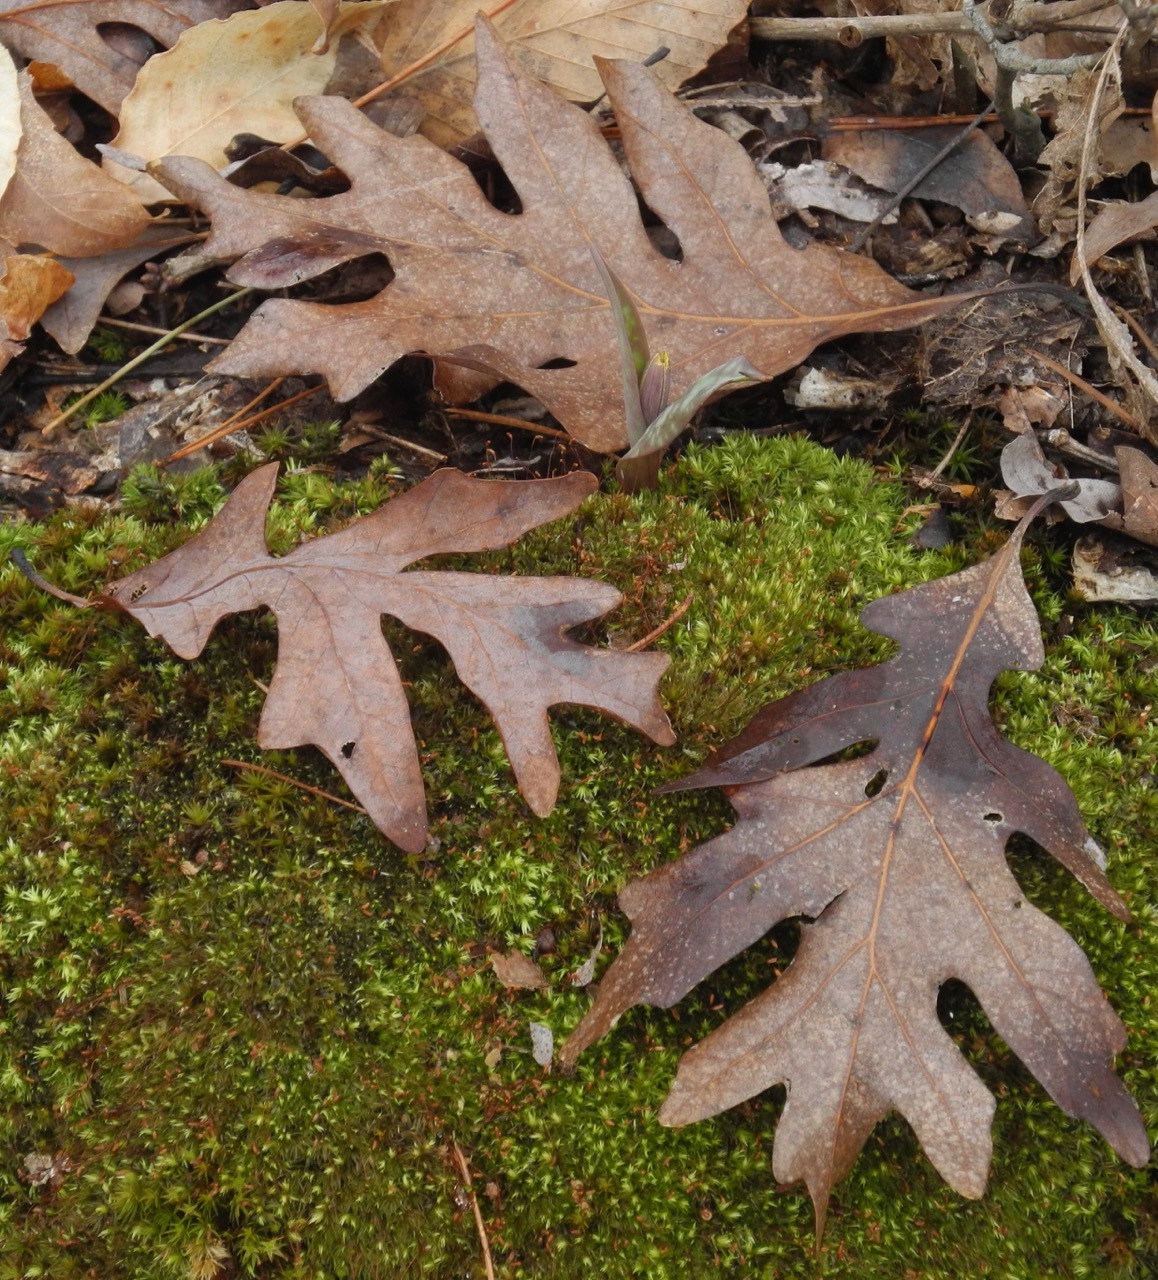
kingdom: Plantae
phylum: Tracheophyta
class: Magnoliopsida
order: Fagales
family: Fagaceae
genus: Quercus
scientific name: Quercus alba
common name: White oak
